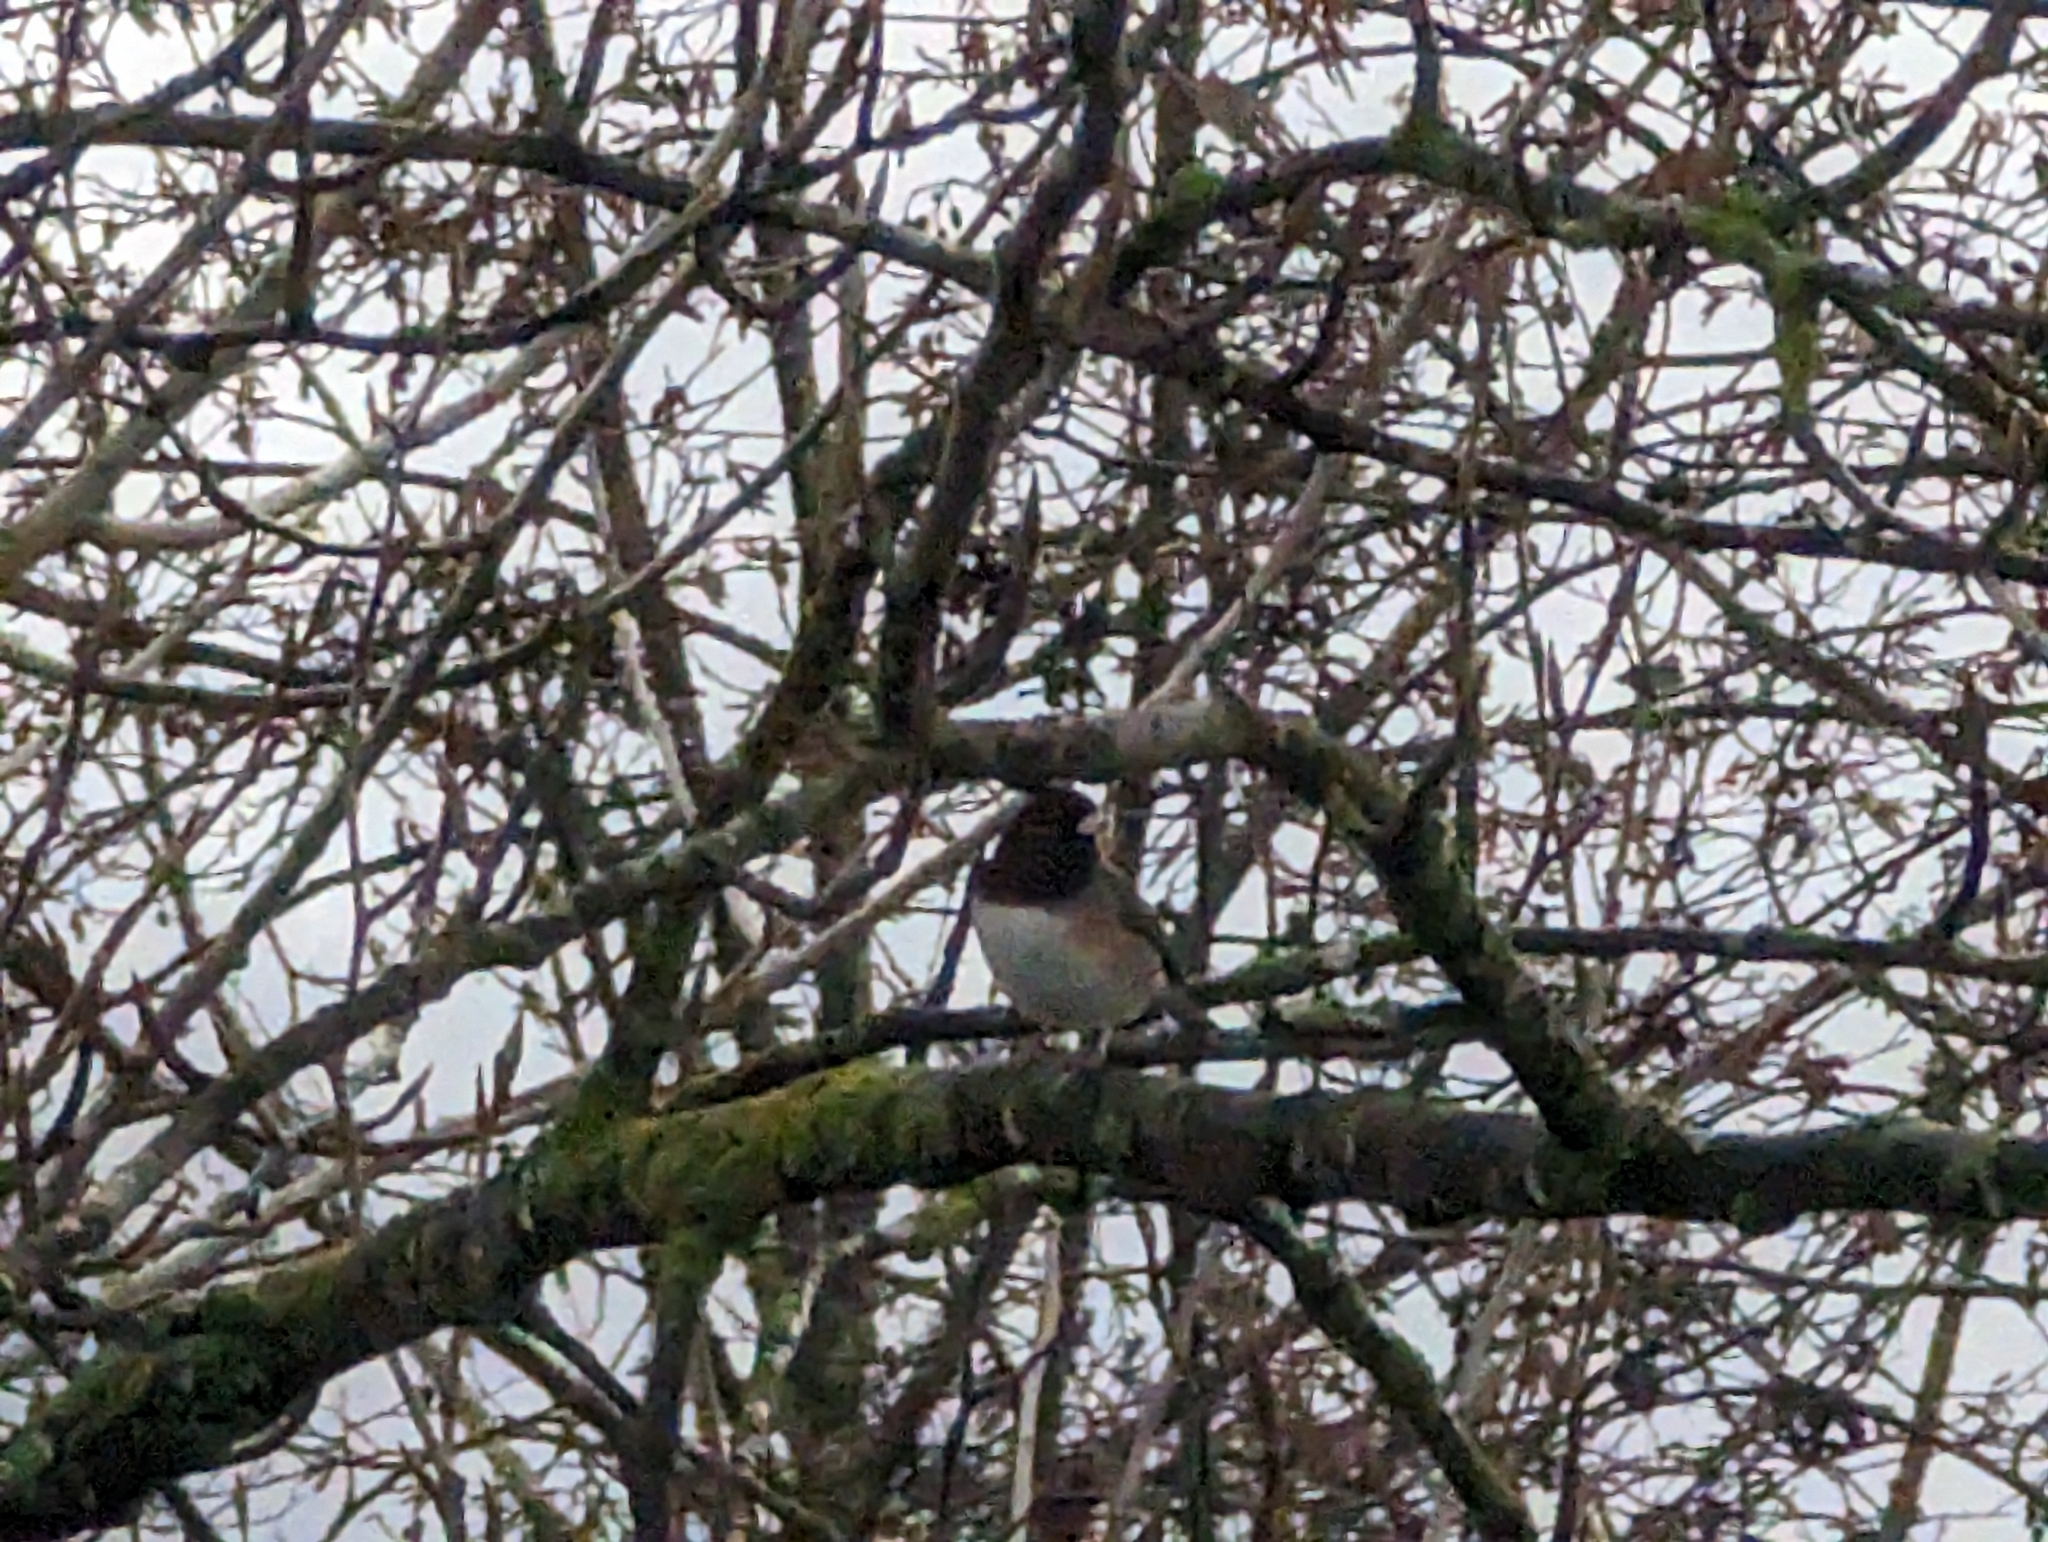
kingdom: Animalia
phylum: Chordata
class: Aves
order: Passeriformes
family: Passerellidae
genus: Junco
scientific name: Junco hyemalis
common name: Dark-eyed junco
